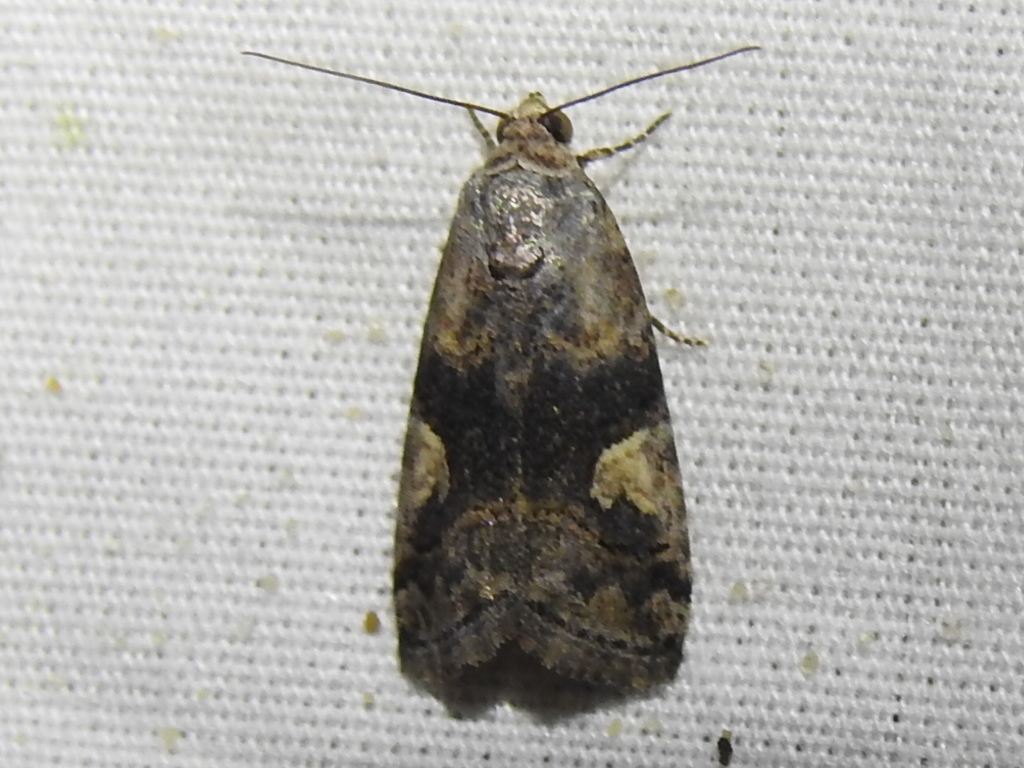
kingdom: Animalia
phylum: Arthropoda
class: Insecta
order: Lepidoptera
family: Noctuidae
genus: Metaponpneumata
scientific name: Metaponpneumata rogenhoferi
